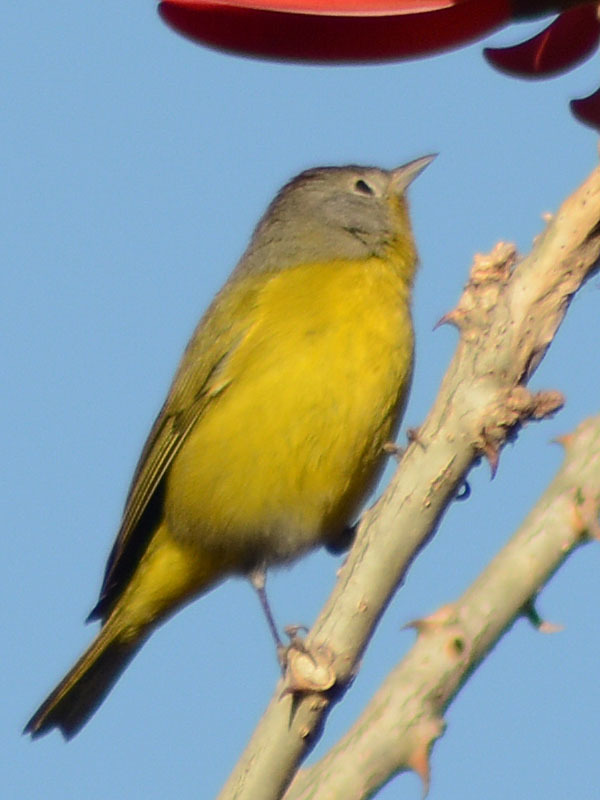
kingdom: Animalia
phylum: Chordata
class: Aves
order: Passeriformes
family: Parulidae
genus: Leiothlypis
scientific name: Leiothlypis ruficapilla
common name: Nashville warbler
